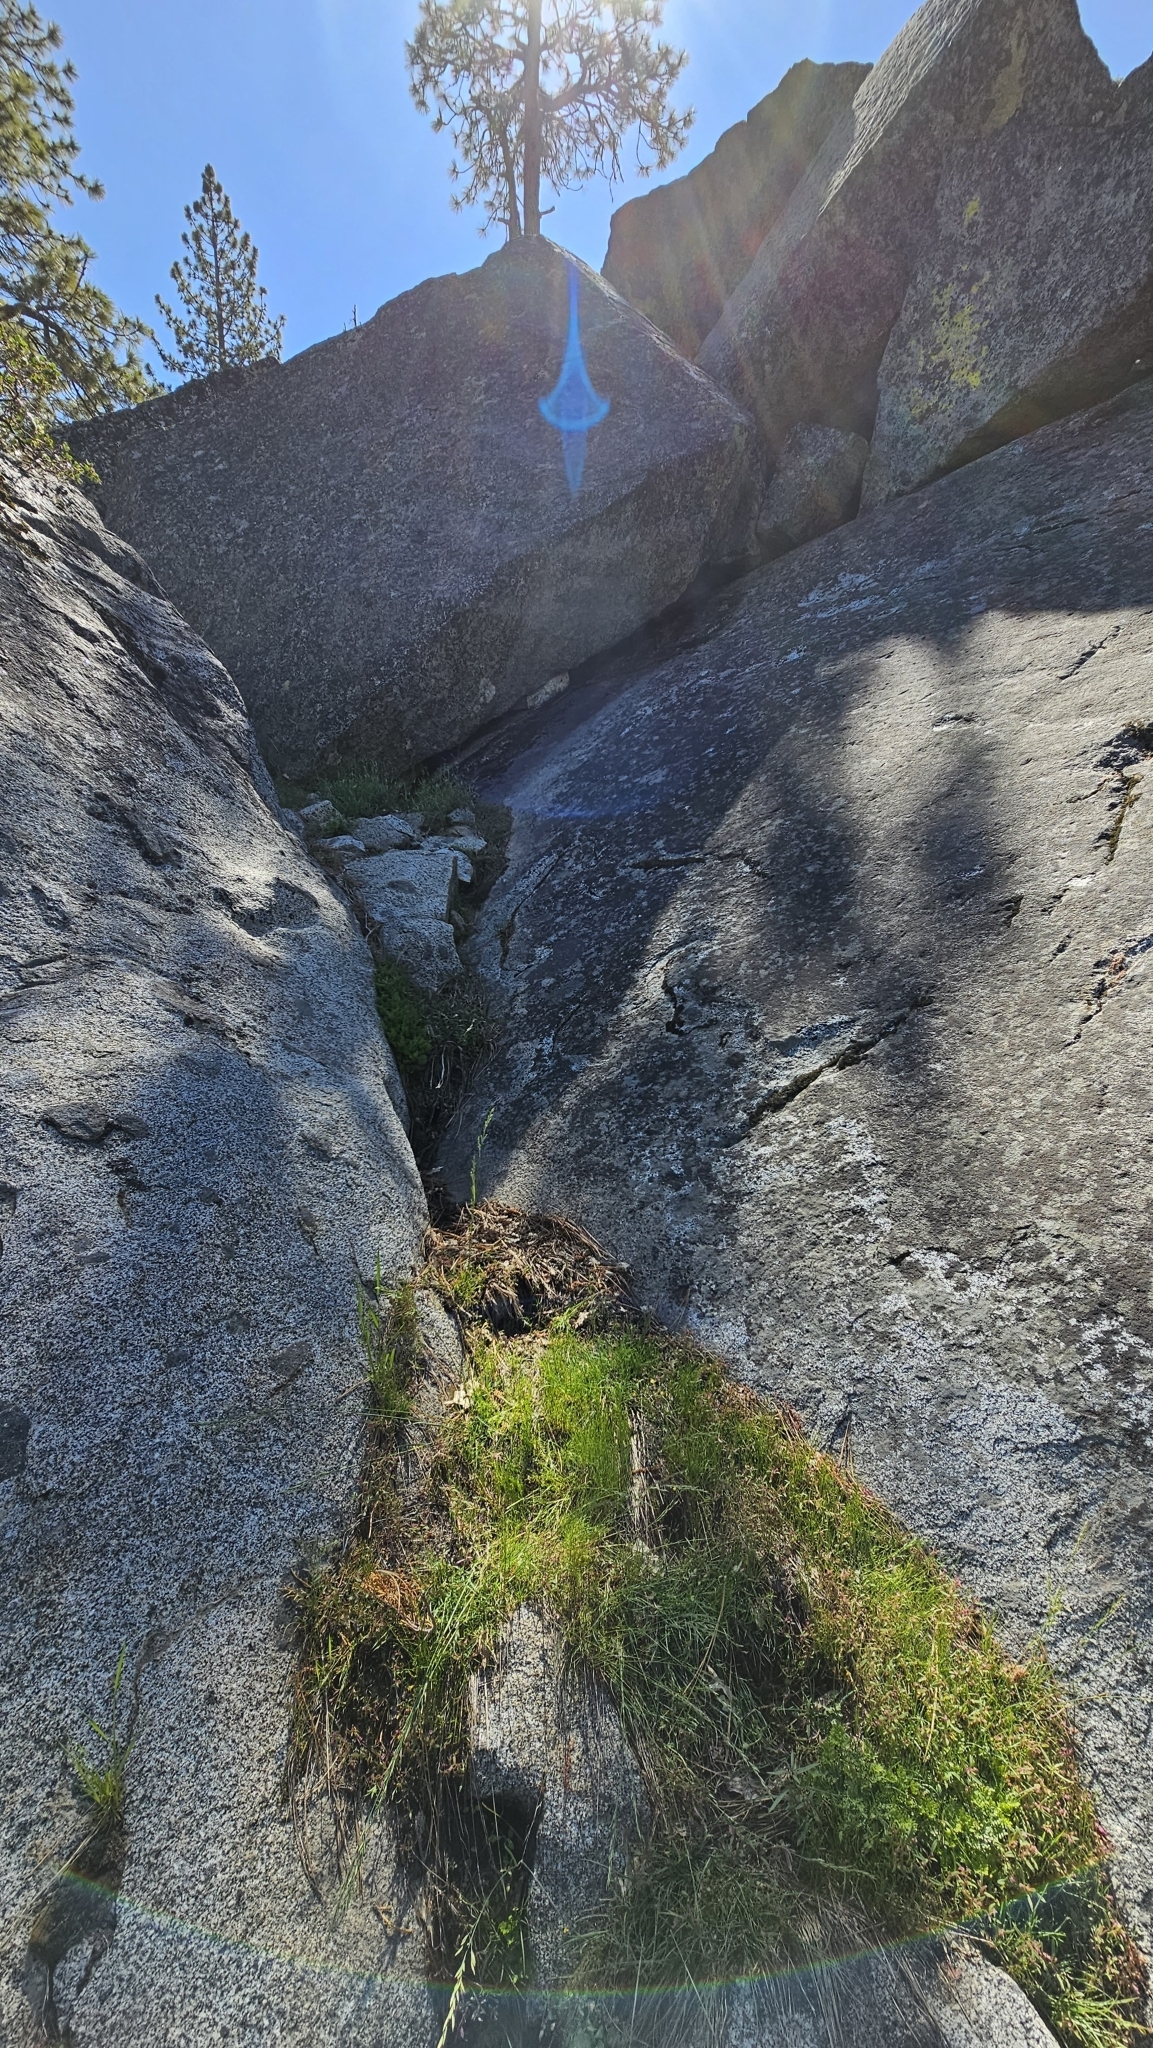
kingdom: Plantae
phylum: Tracheophyta
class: Magnoliopsida
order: Lamiales
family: Phrymaceae
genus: Erythranthe
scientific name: Erythranthe laciniata
